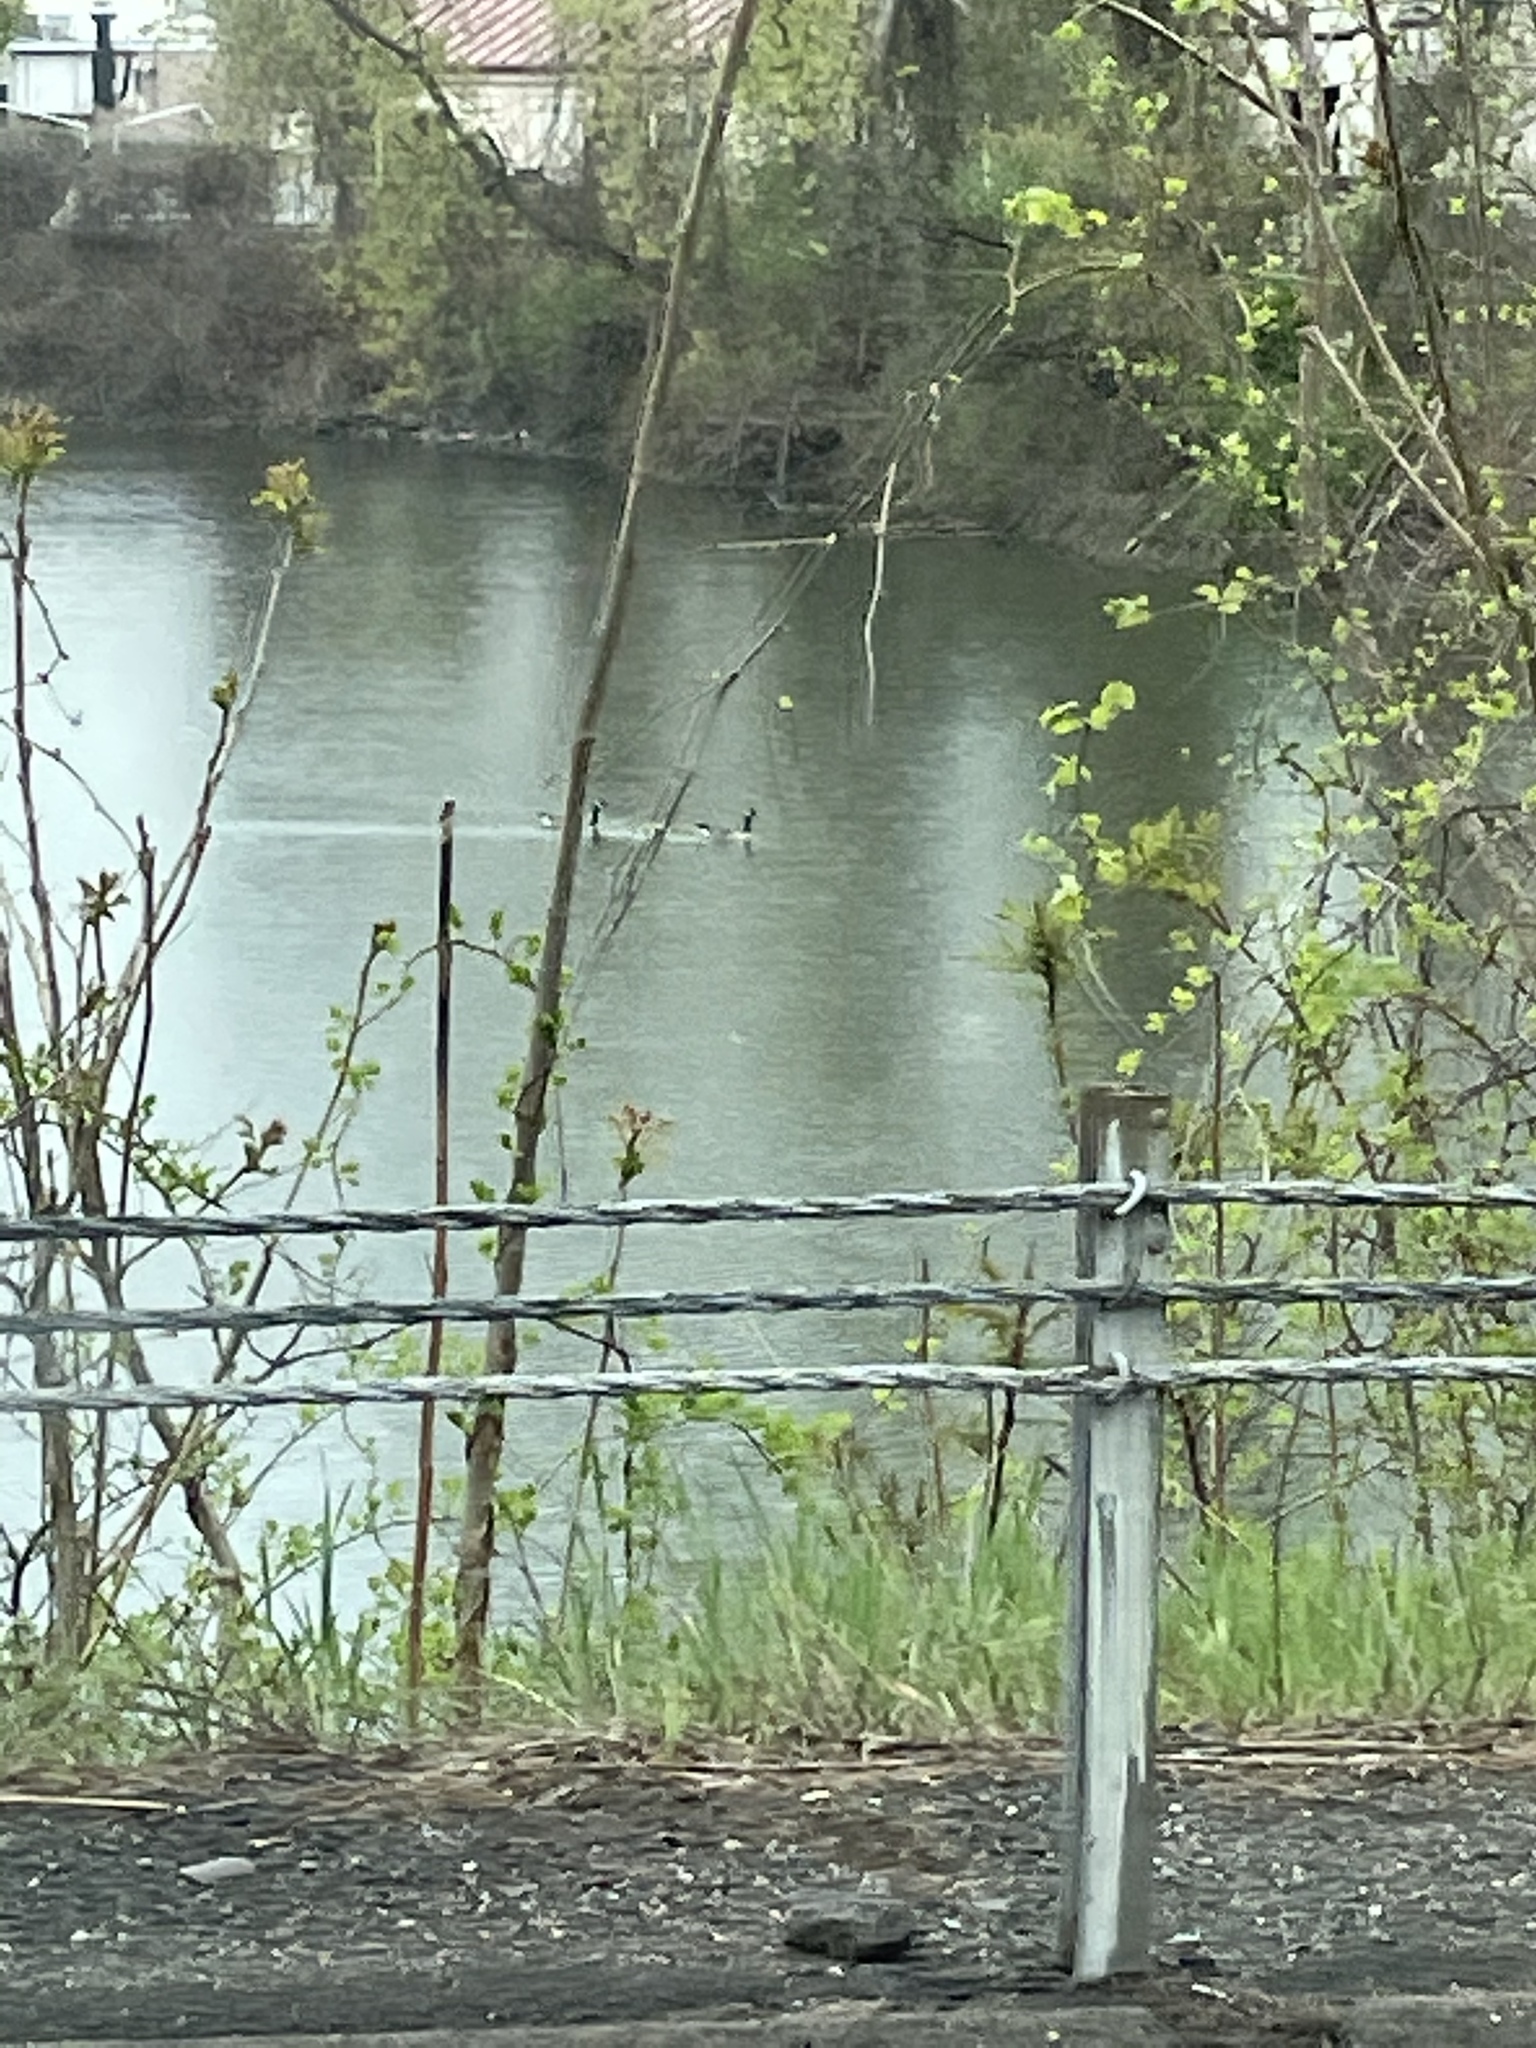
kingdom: Animalia
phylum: Chordata
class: Aves
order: Anseriformes
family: Anatidae
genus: Branta
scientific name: Branta canadensis
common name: Canada goose
